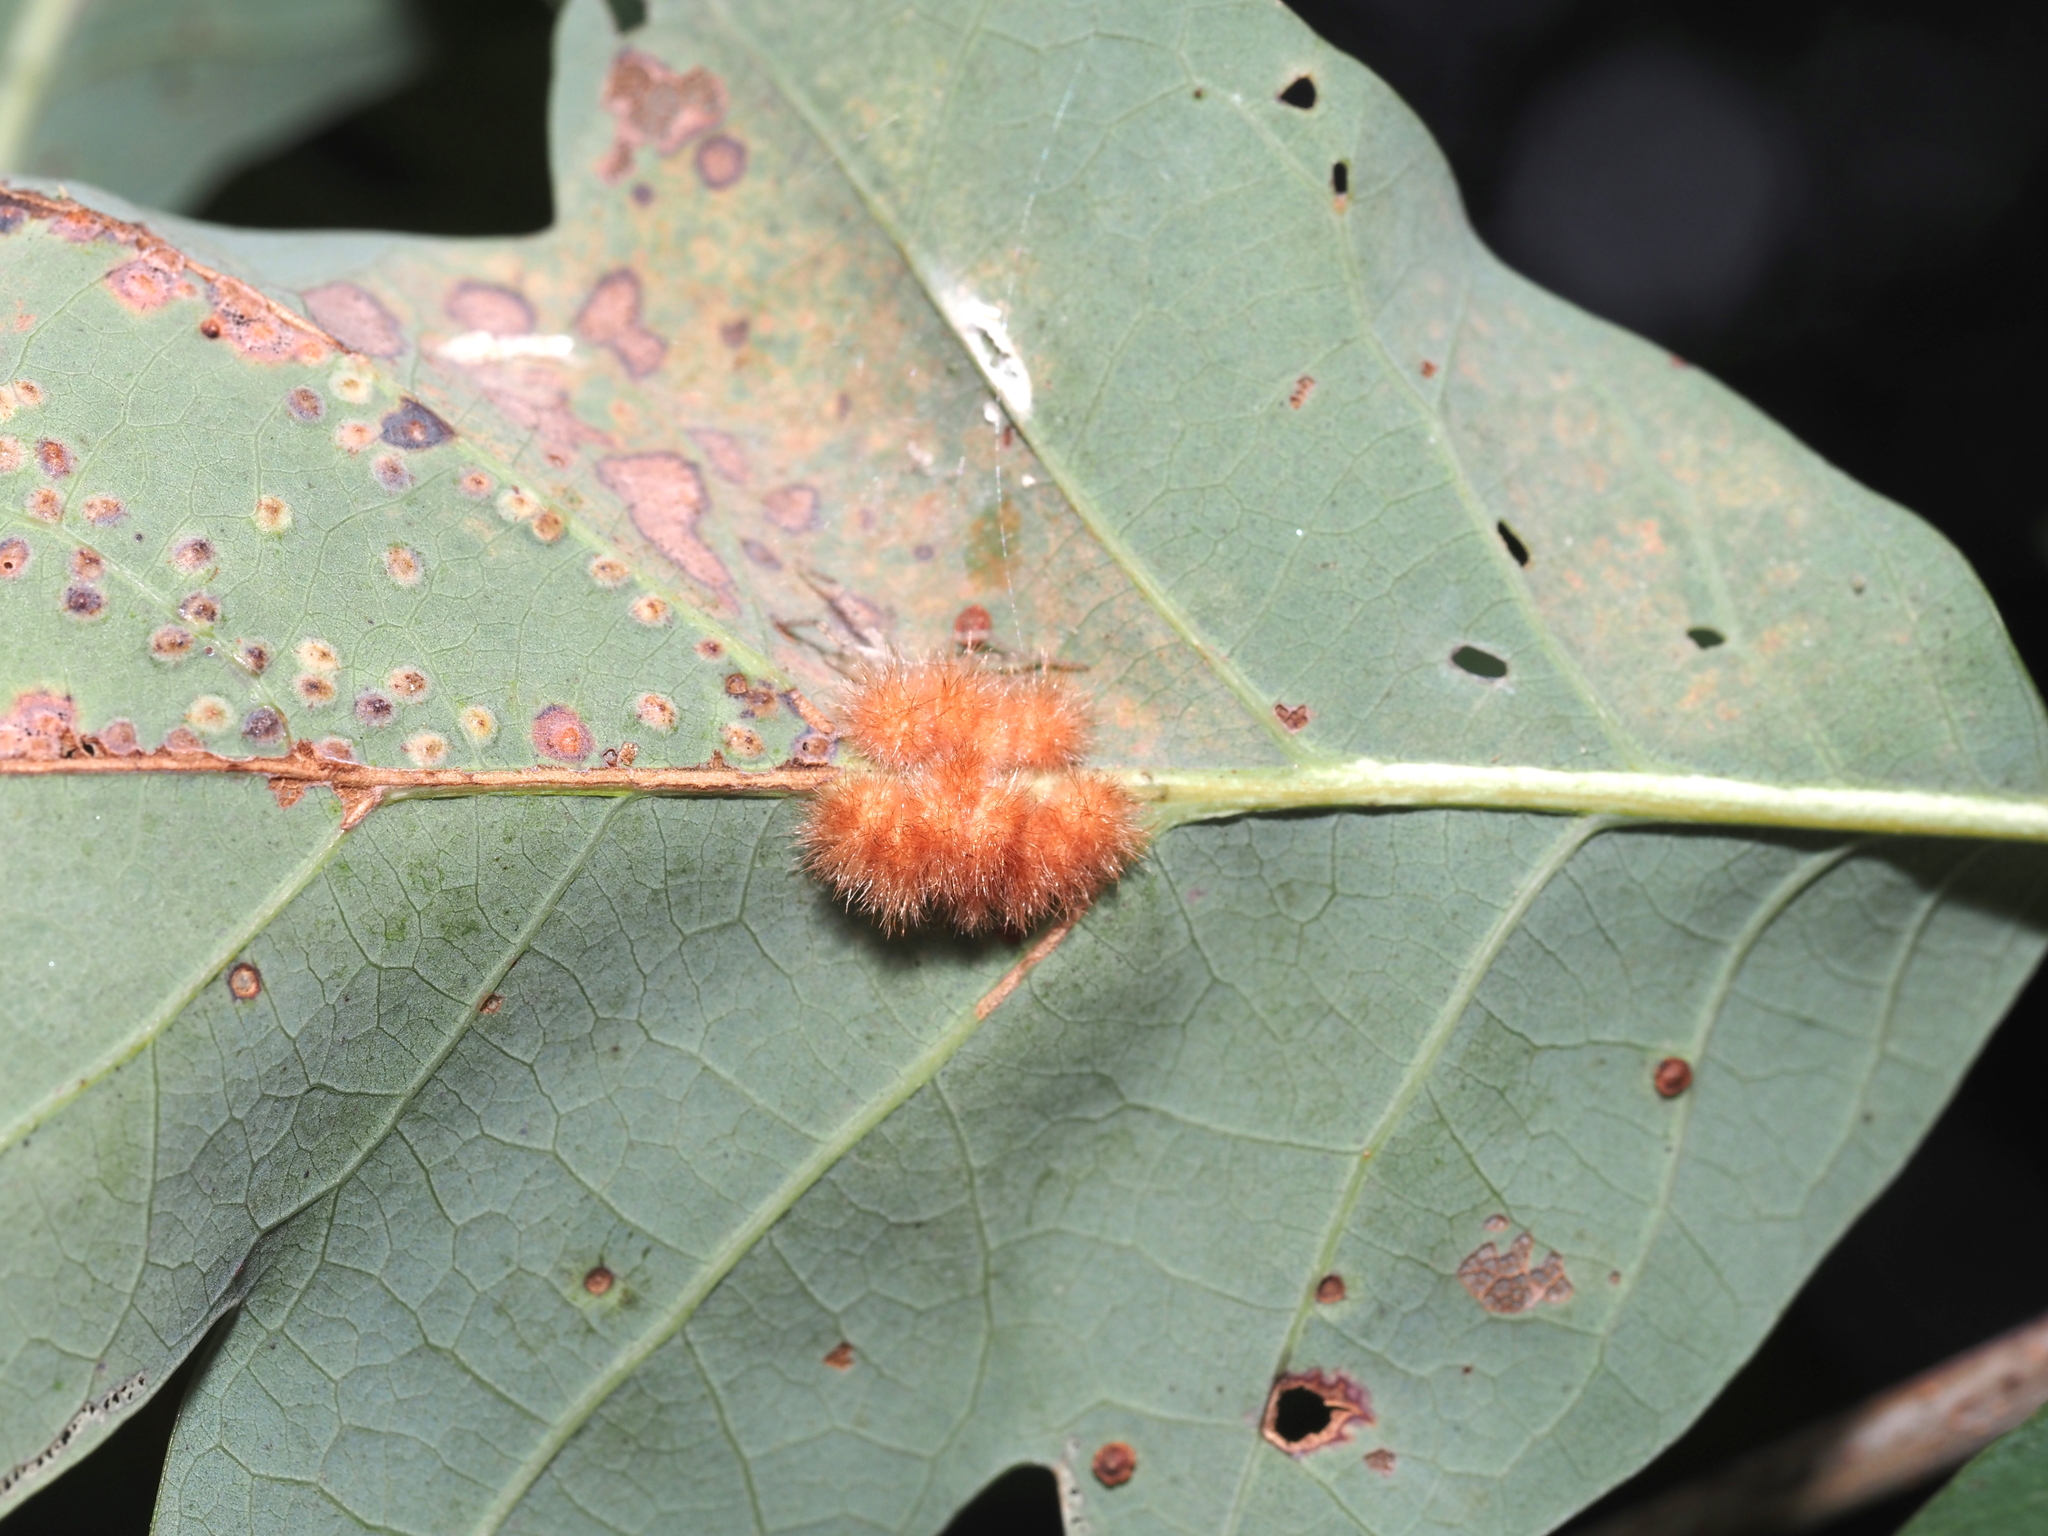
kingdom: Animalia
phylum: Arthropoda
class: Insecta
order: Hymenoptera
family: Cynipidae
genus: Andricus
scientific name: Andricus
